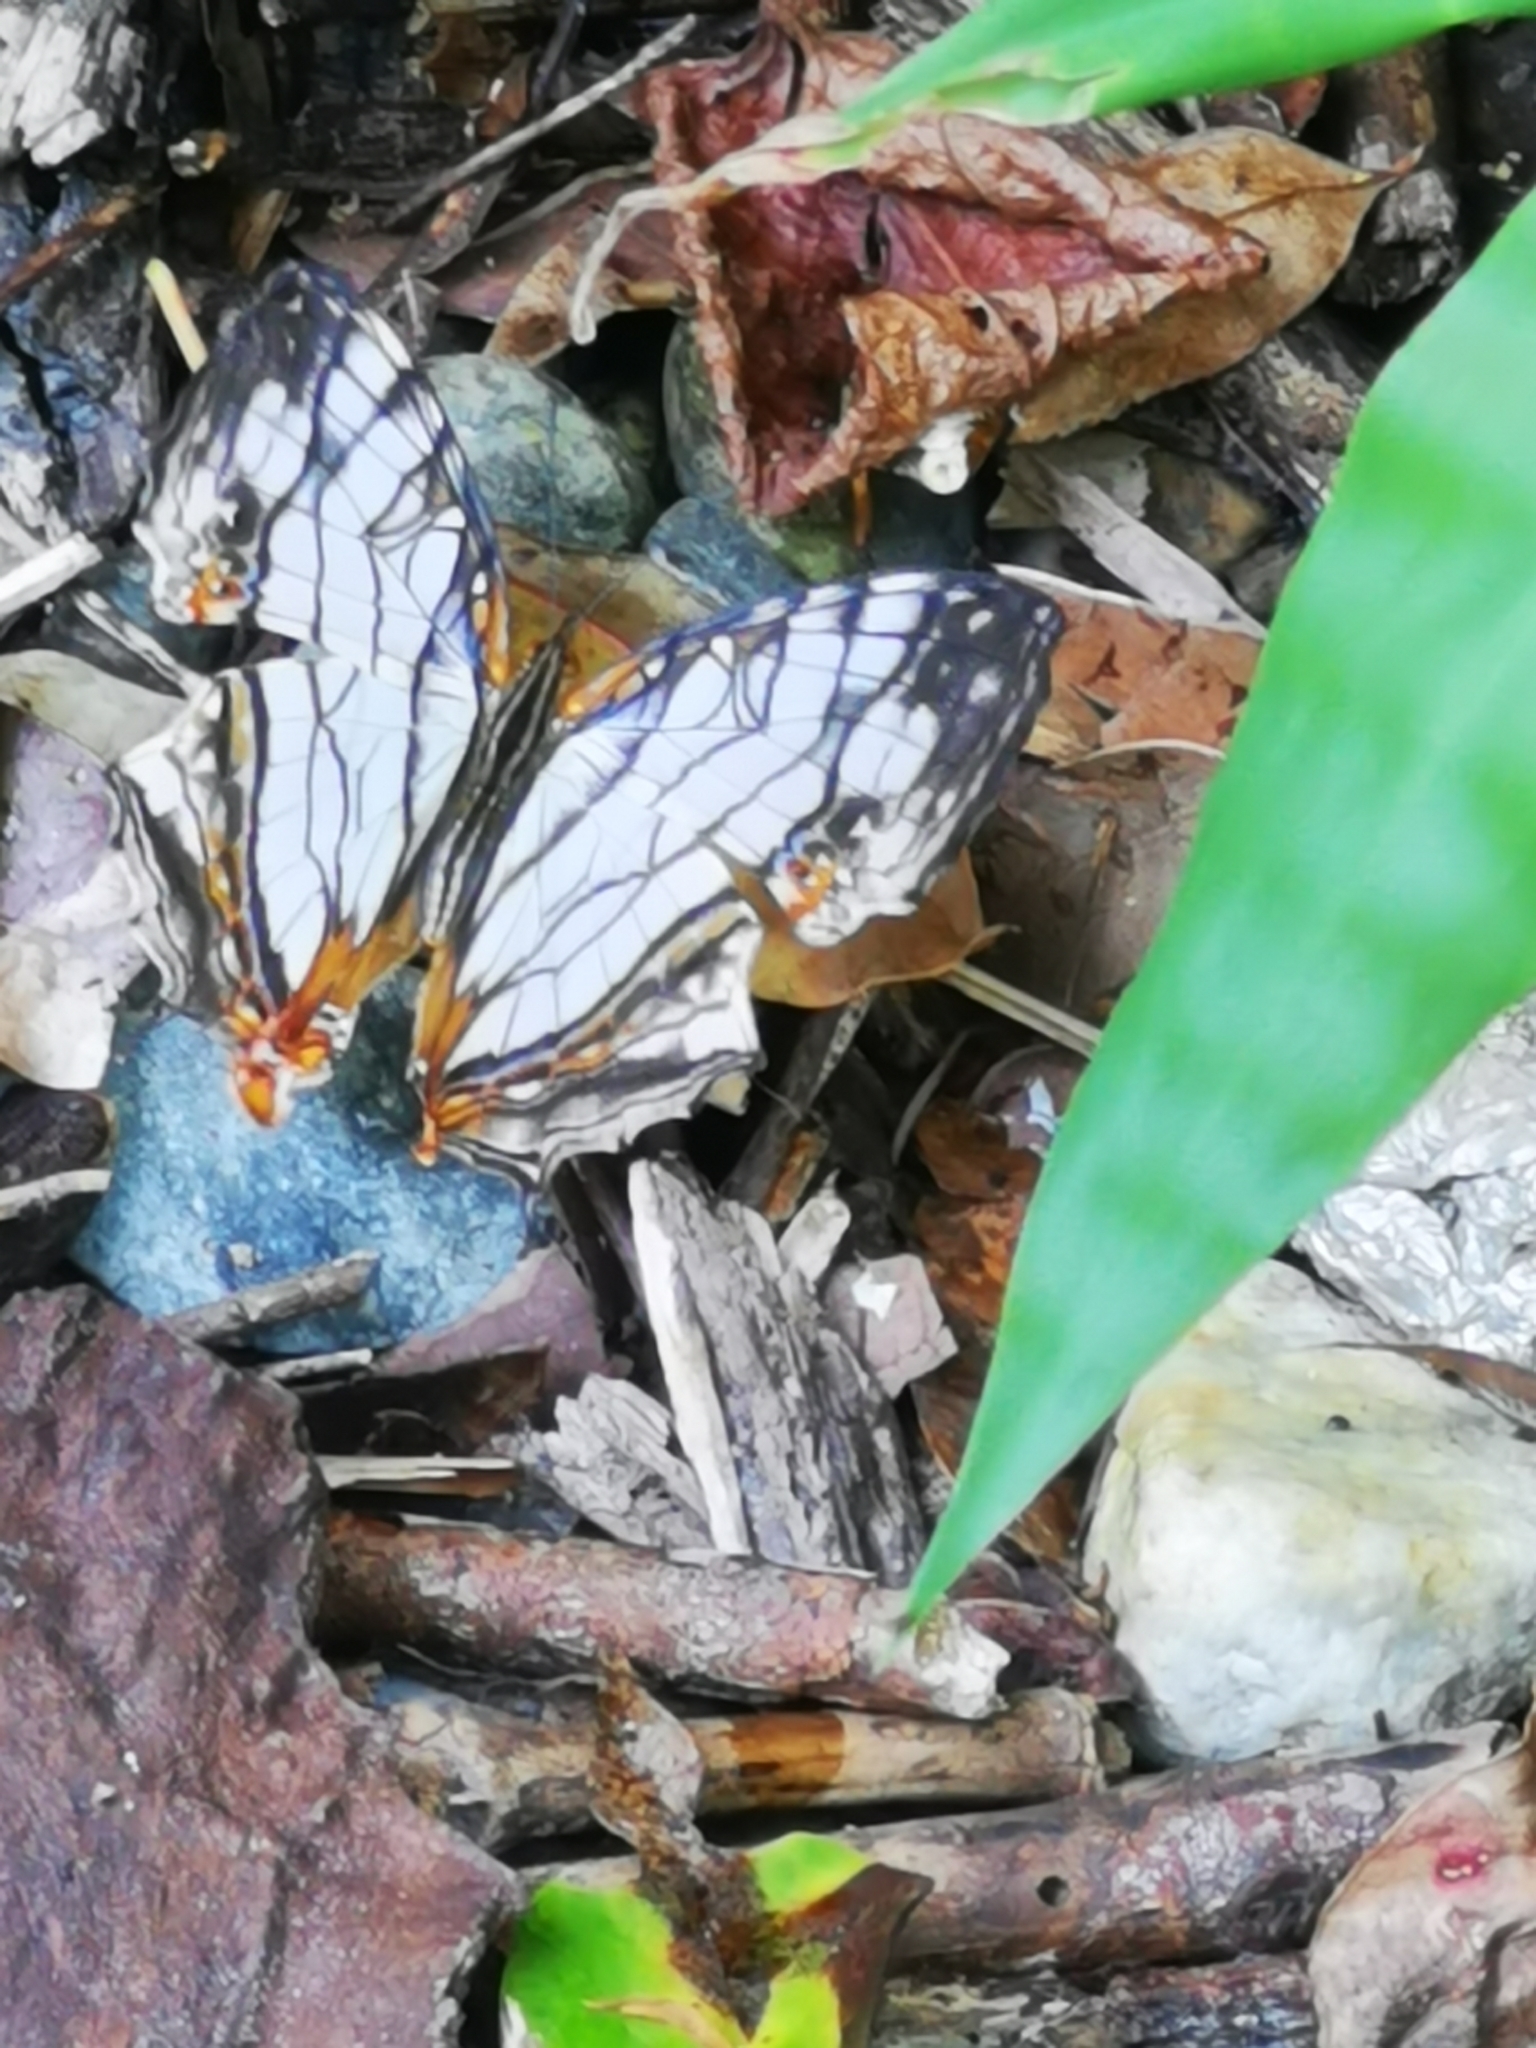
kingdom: Animalia
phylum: Arthropoda
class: Insecta
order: Lepidoptera
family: Nymphalidae
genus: Cyrestis
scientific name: Cyrestis thyodamas
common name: Common mapwing
